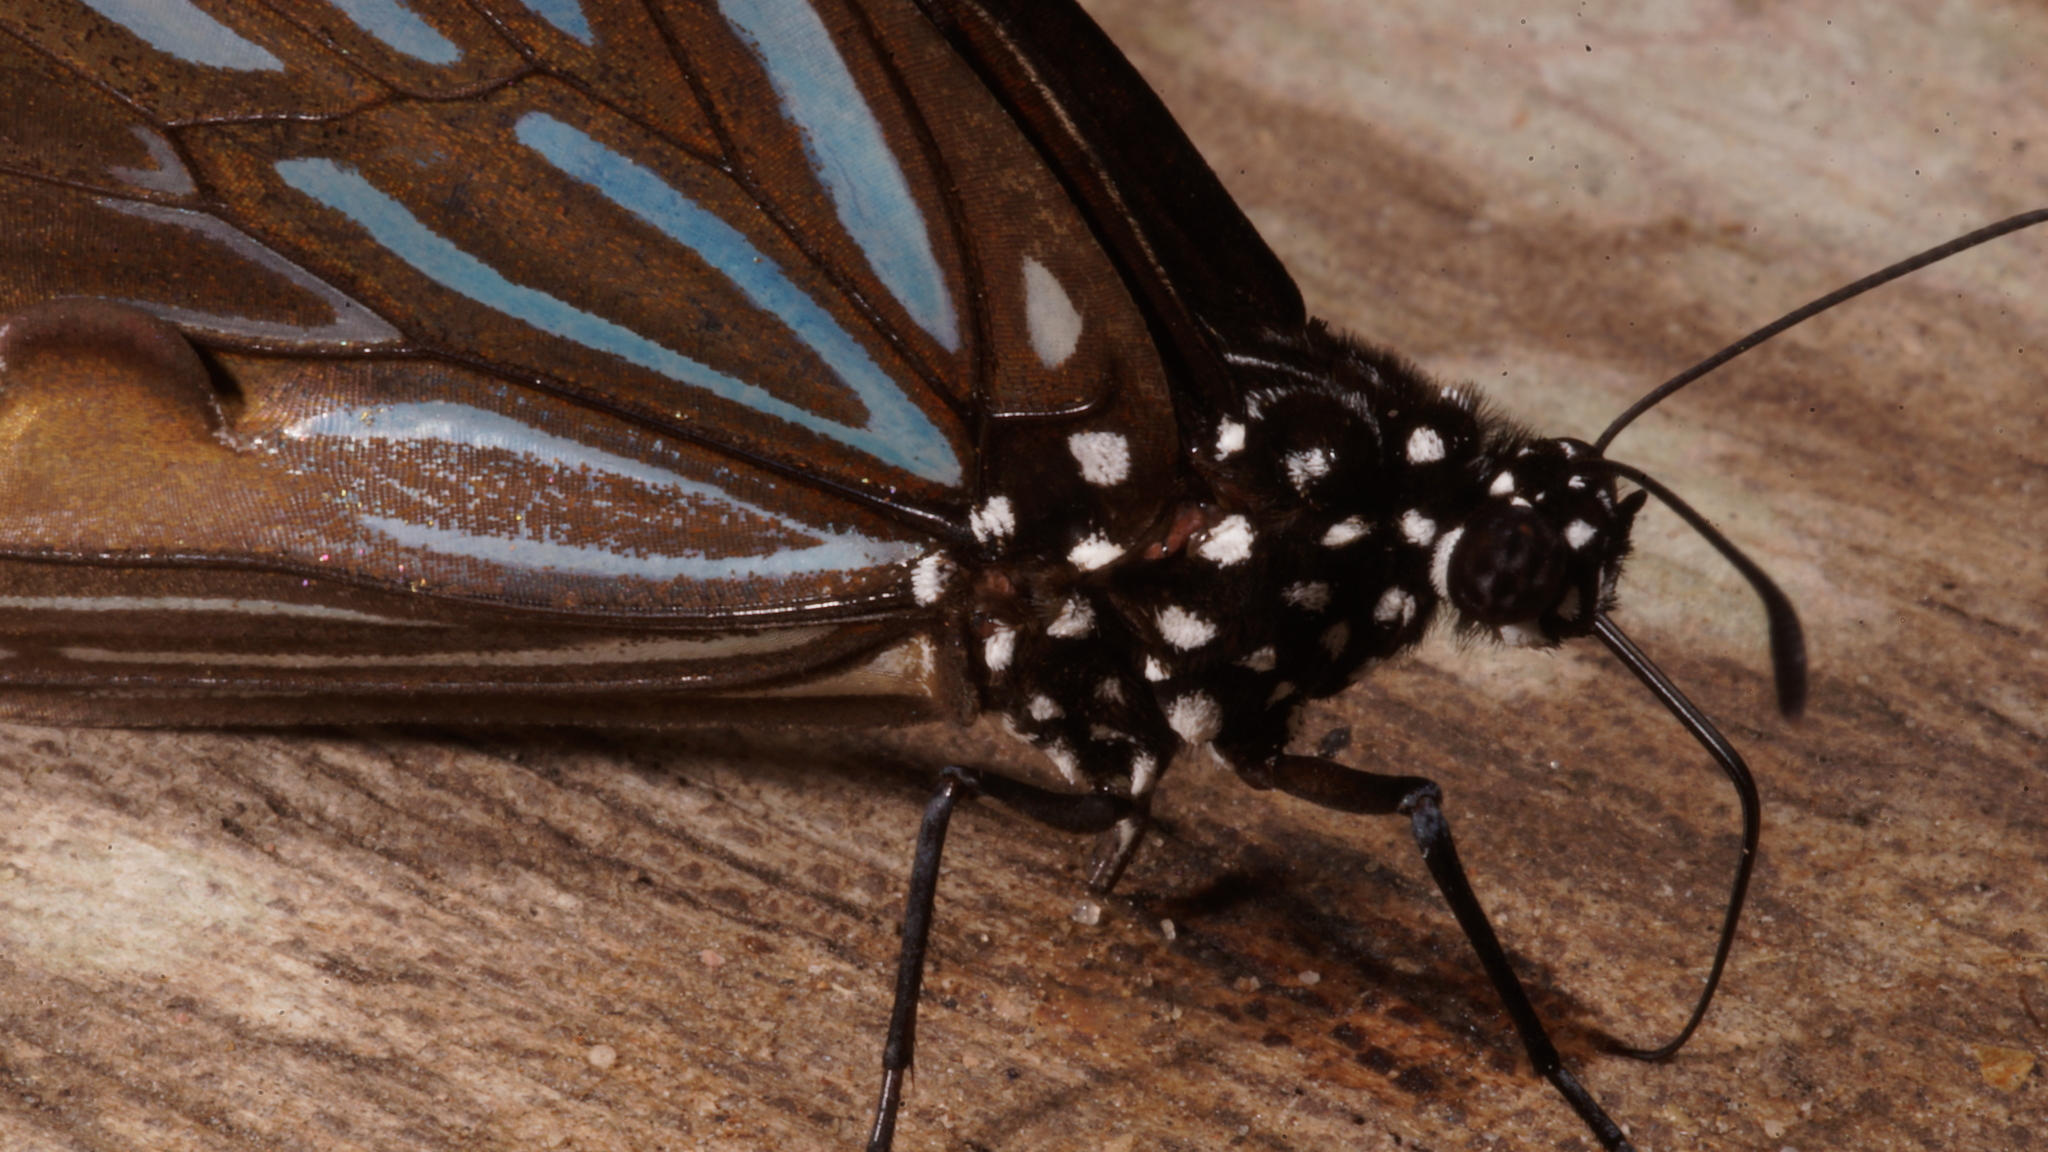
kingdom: Animalia
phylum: Arthropoda
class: Insecta
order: Lepidoptera
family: Nymphalidae
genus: Tirumala
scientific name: Tirumala septentrionis
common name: Dark blue tiger butterfly
